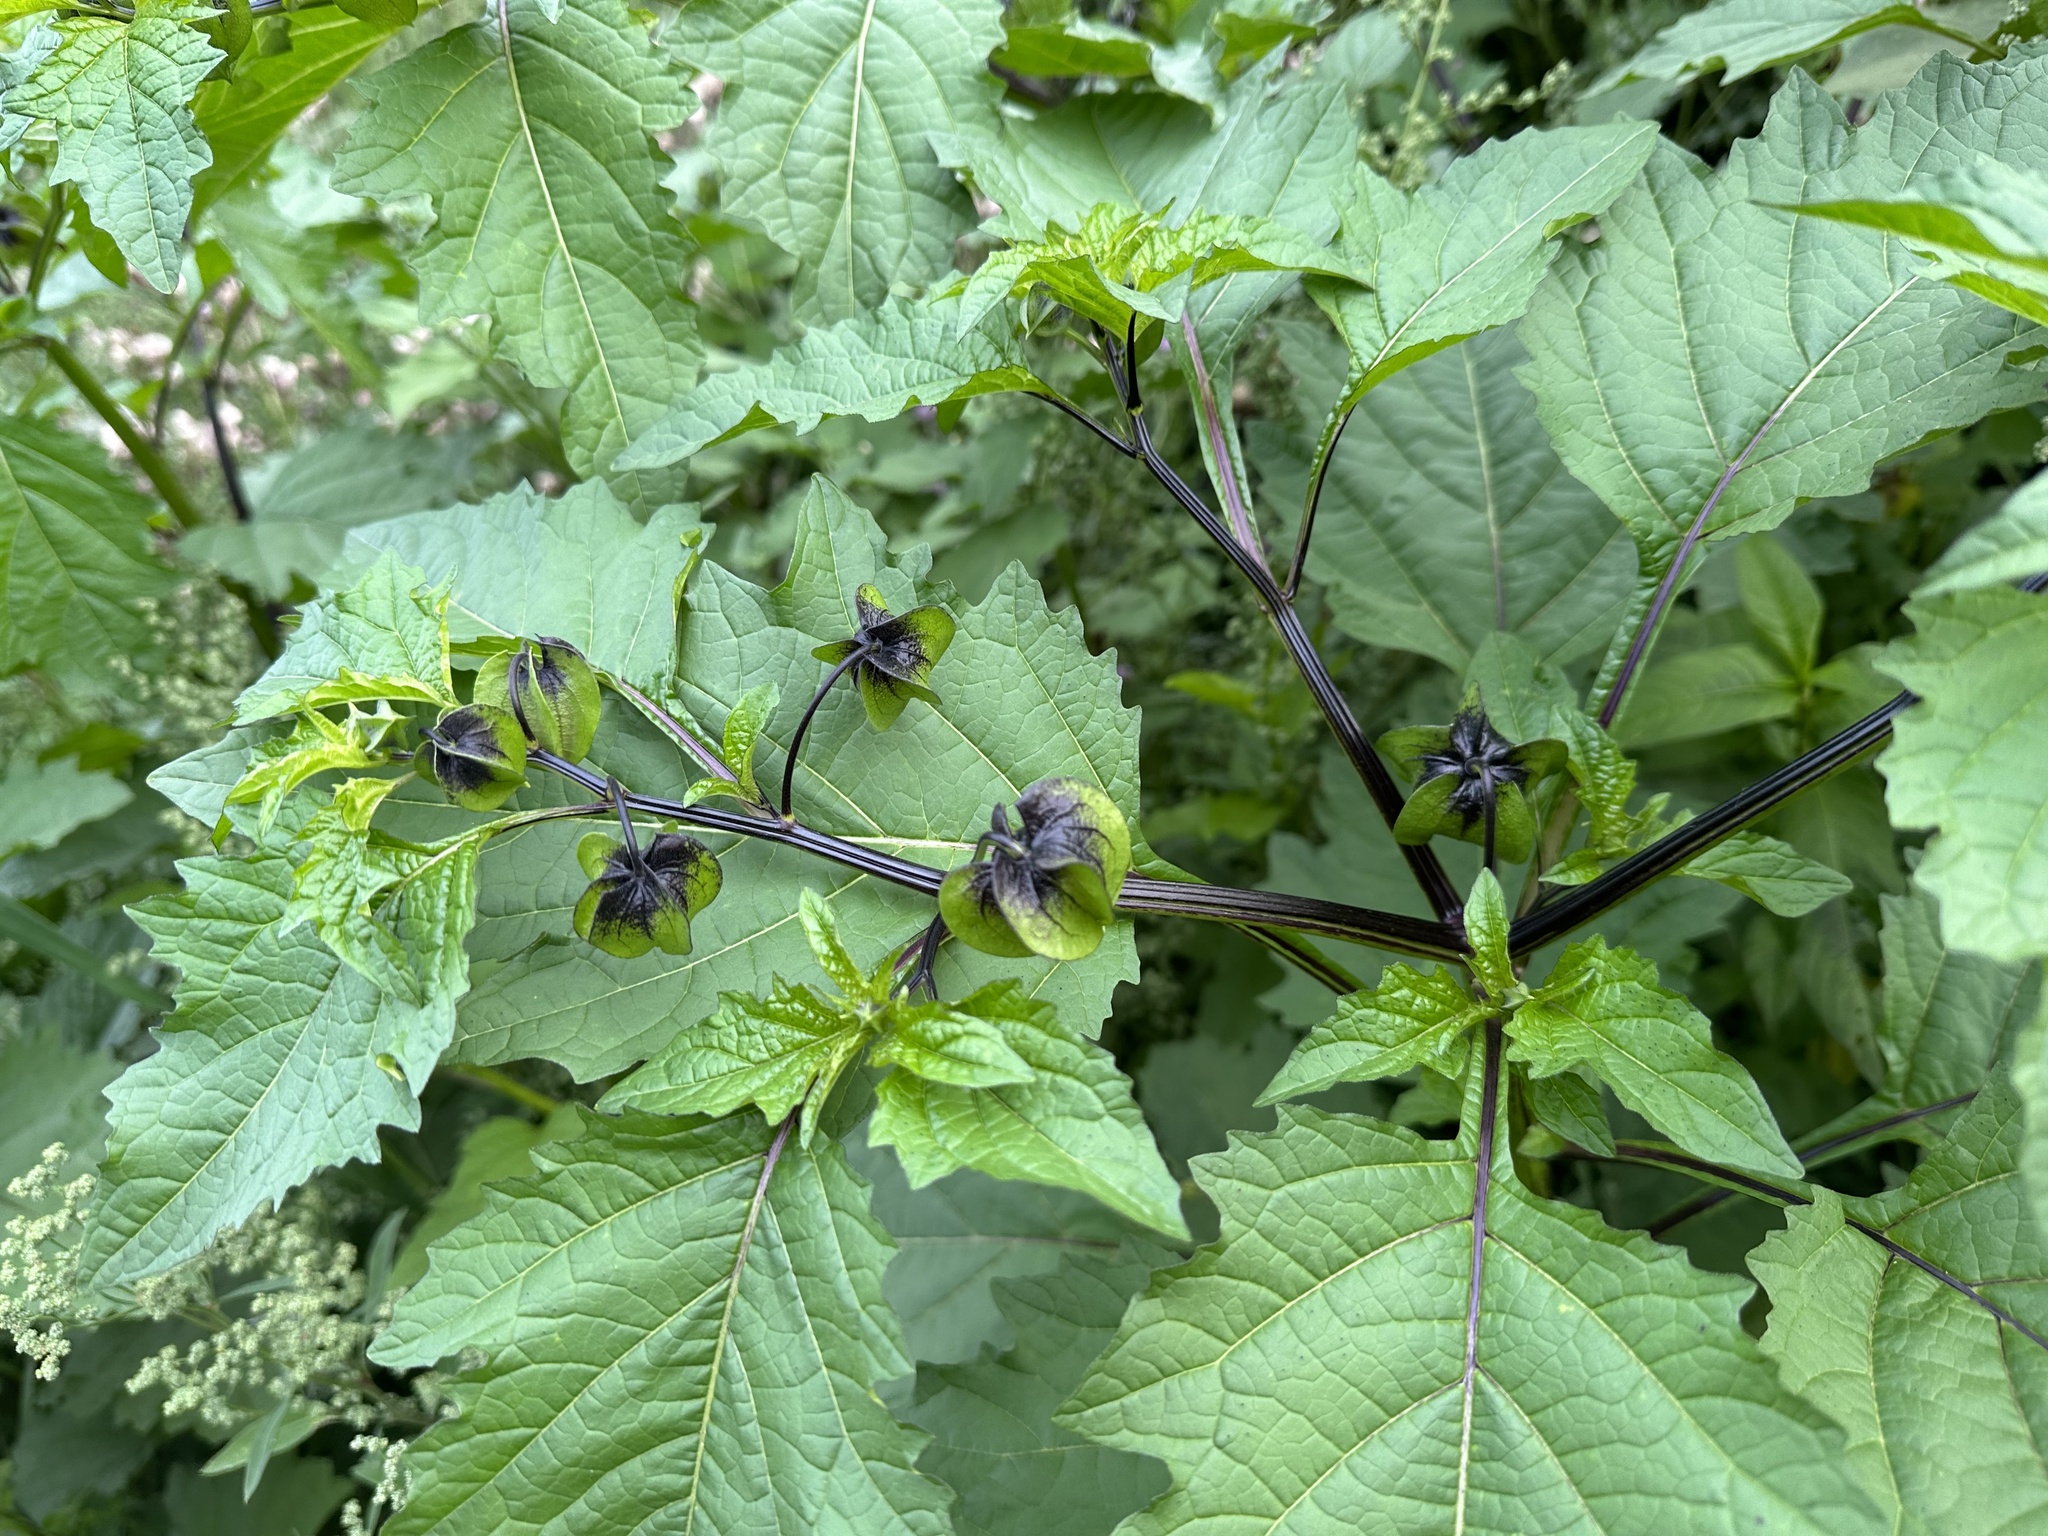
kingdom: Plantae
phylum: Tracheophyta
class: Magnoliopsida
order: Solanales
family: Solanaceae
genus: Nicandra
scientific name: Nicandra physalodes
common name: Apple-of-peru
